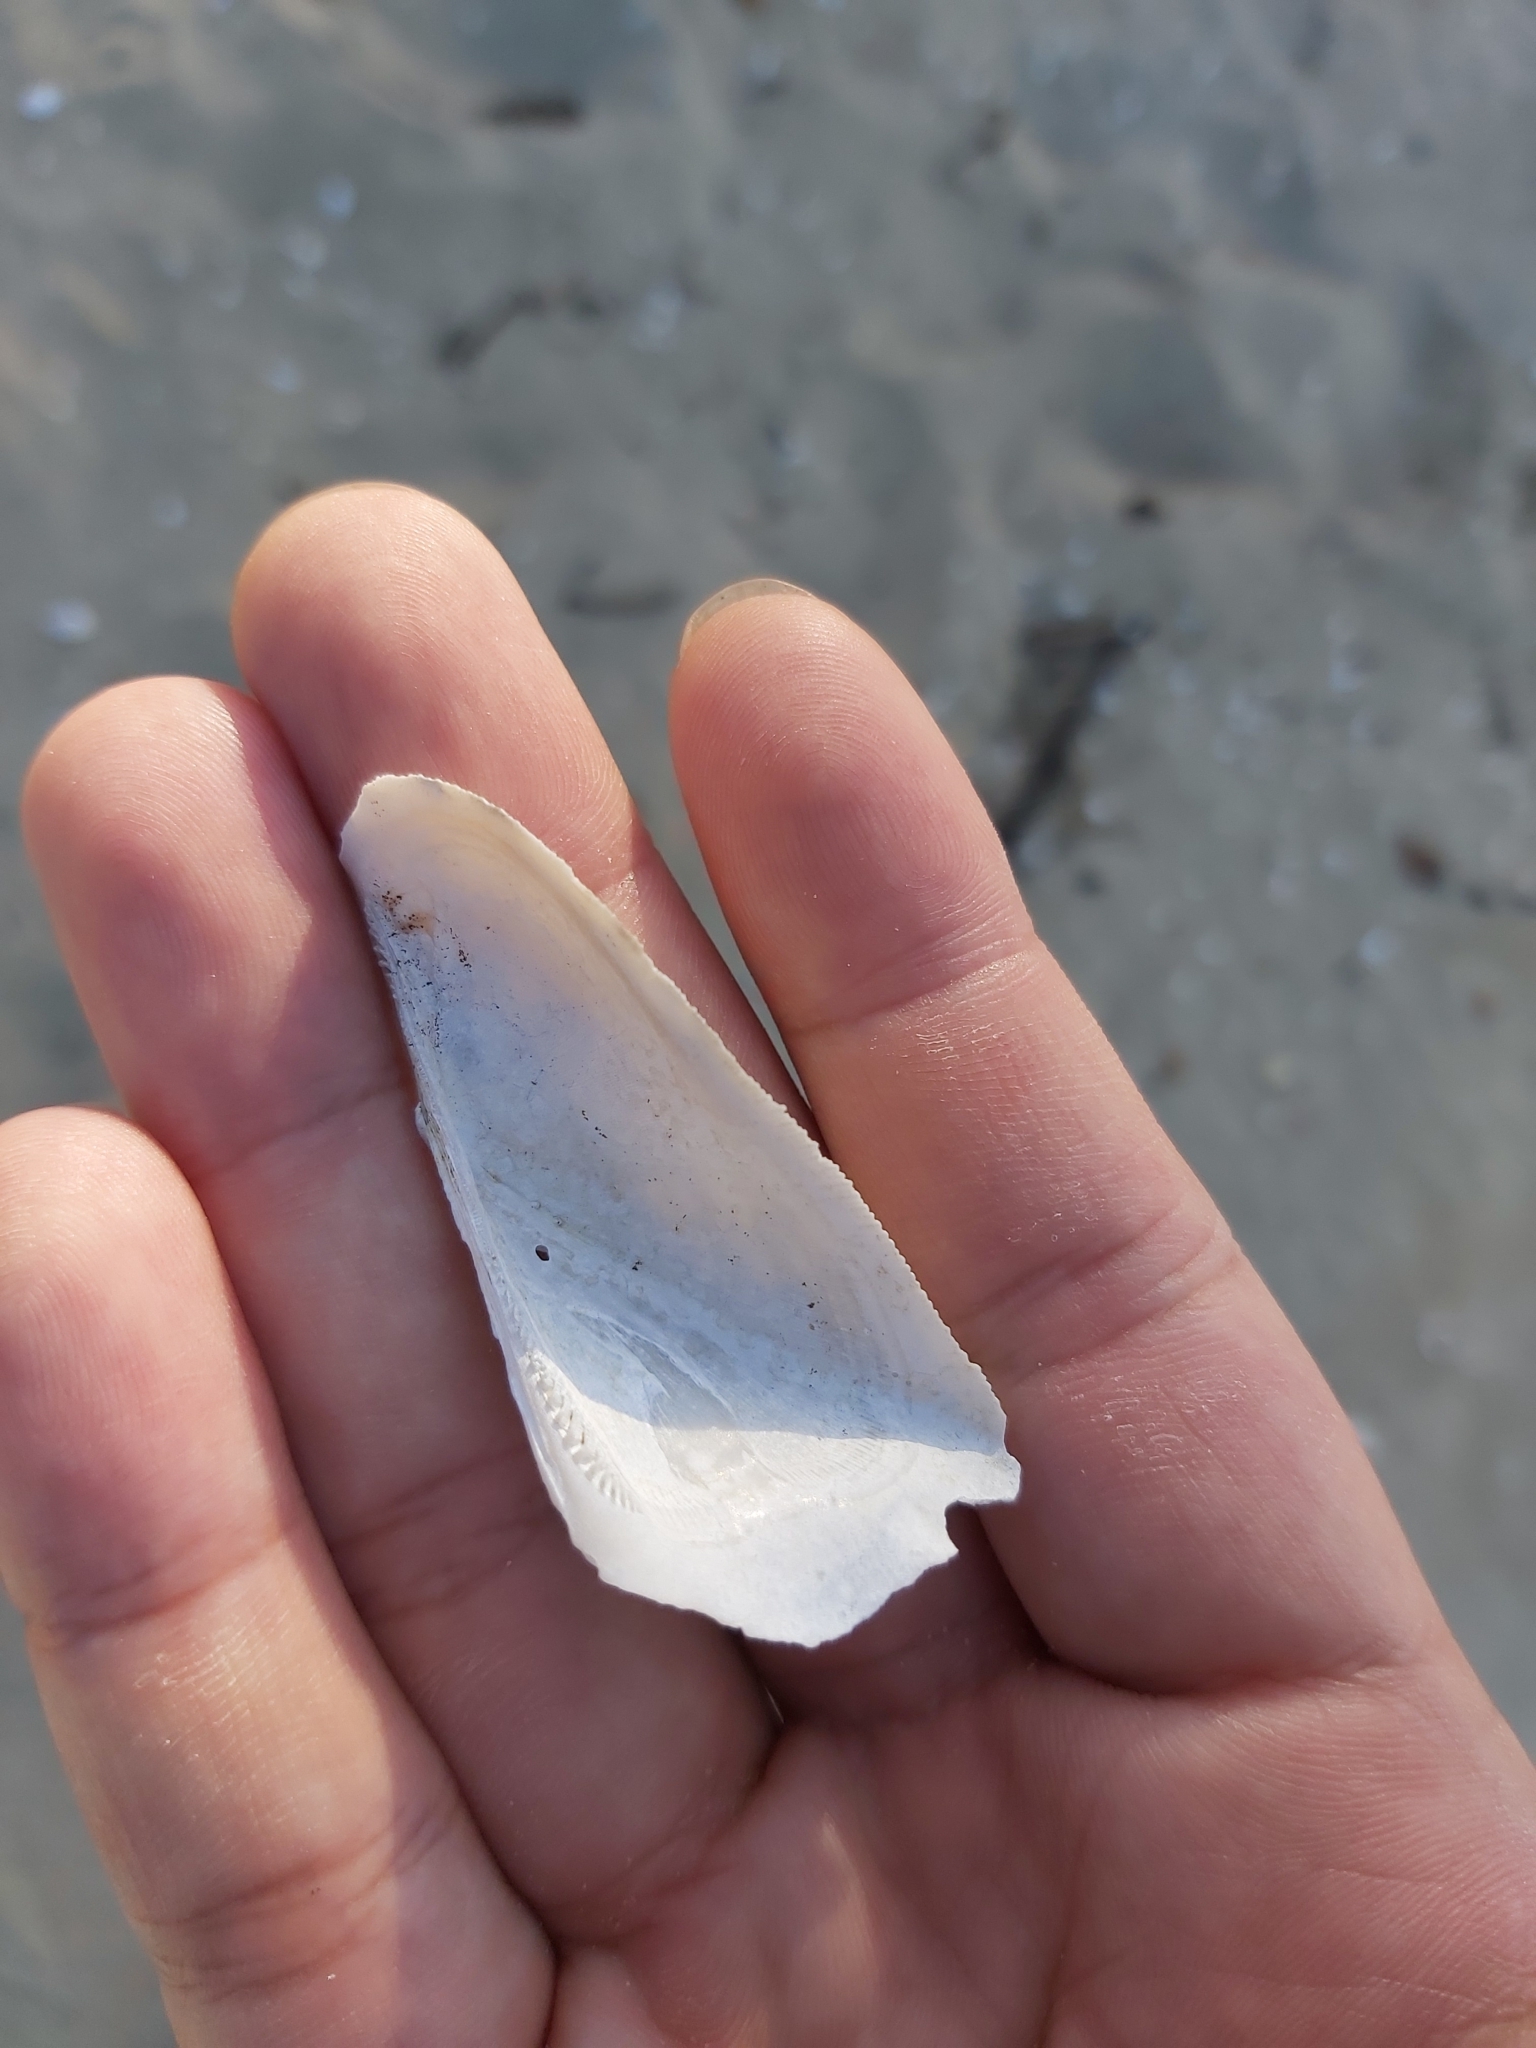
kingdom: Animalia
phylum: Mollusca
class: Bivalvia
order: Arcida
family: Arcidae
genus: Trisidos
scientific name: Trisidos tortuosa
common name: Propeller ark
